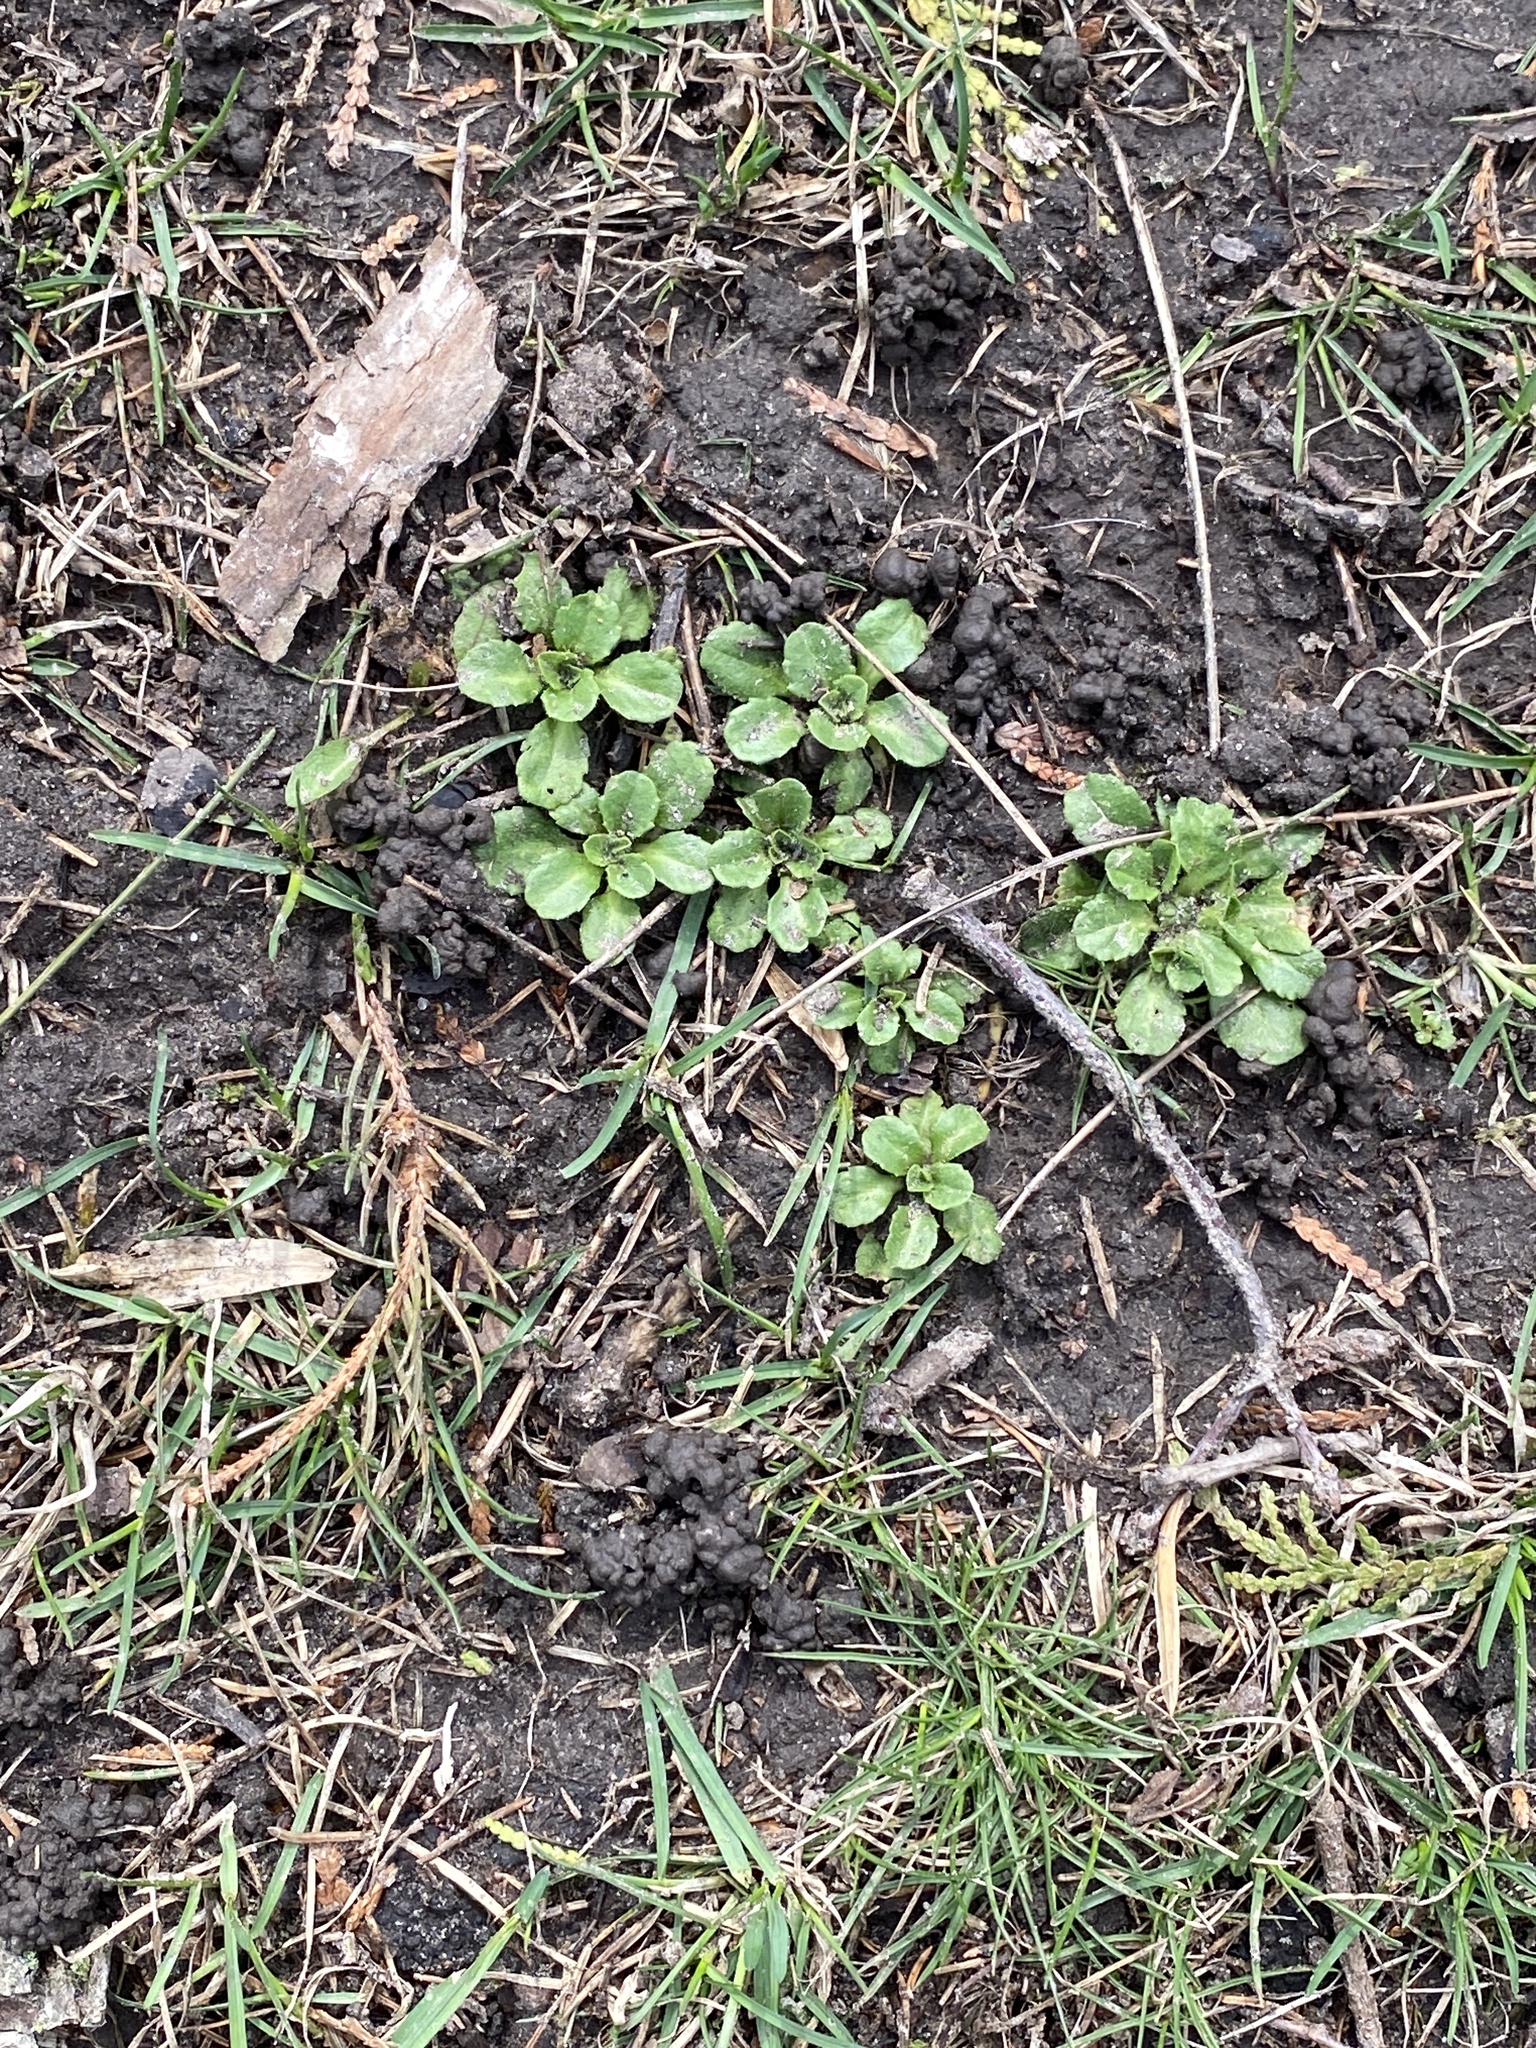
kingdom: Plantae
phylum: Tracheophyta
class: Magnoliopsida
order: Asterales
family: Asteraceae
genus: Bellis
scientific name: Bellis perennis
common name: Lawndaisy
